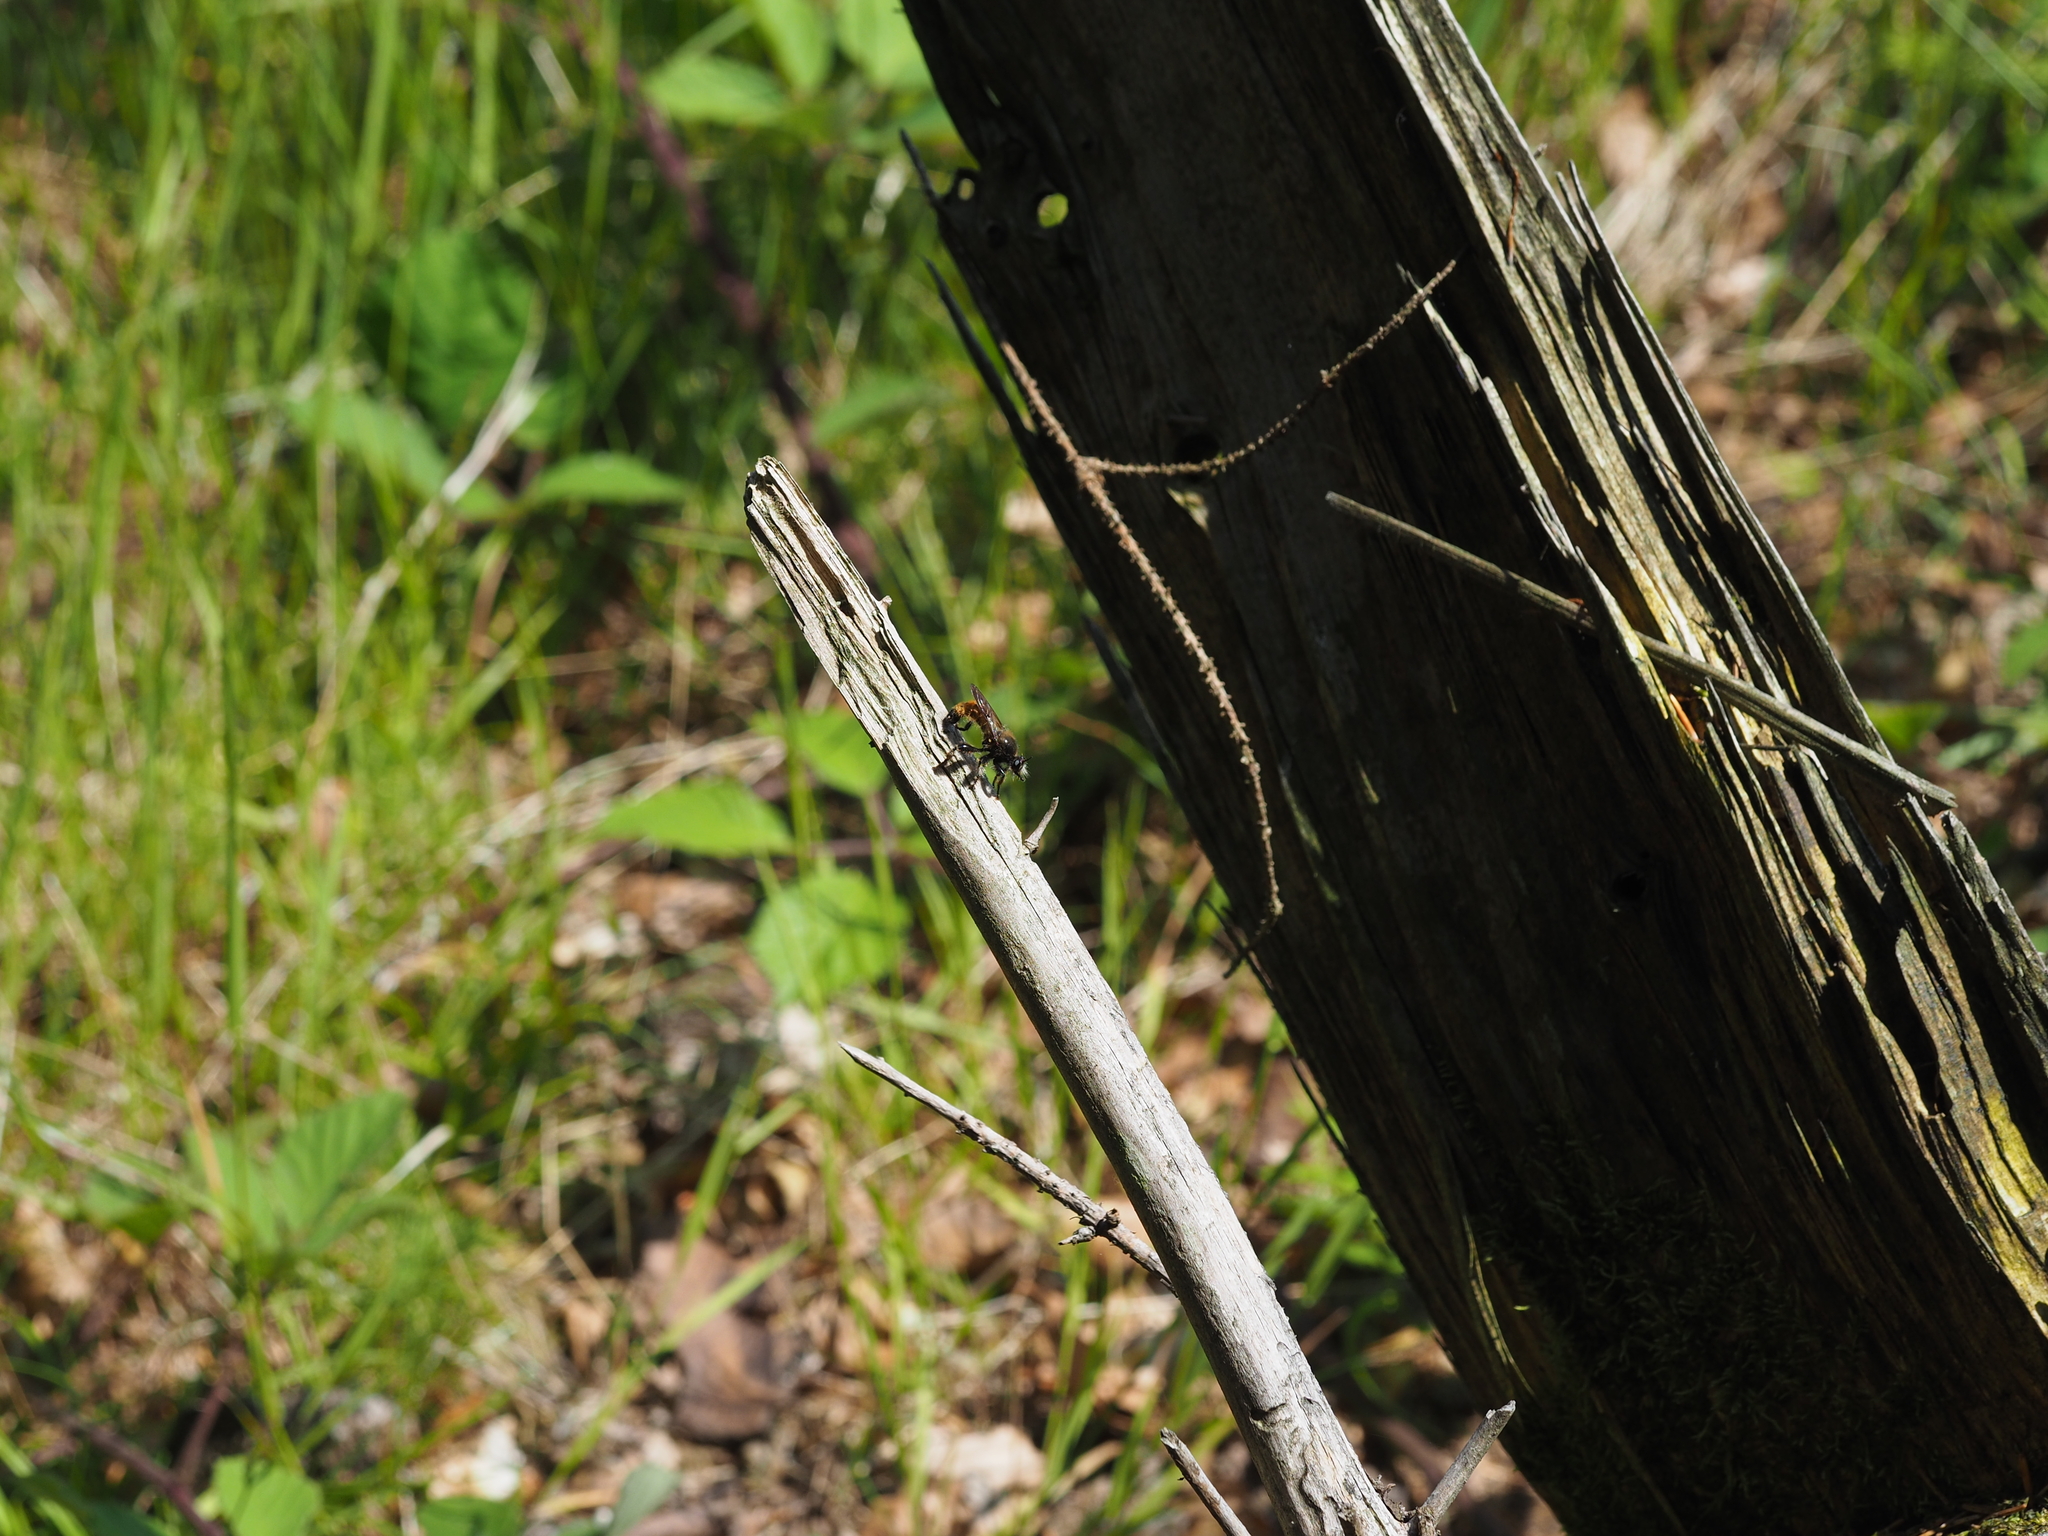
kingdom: Animalia
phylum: Arthropoda
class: Insecta
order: Diptera
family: Asilidae
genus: Laphria
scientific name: Laphria flava
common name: Bumblebee robberfly
